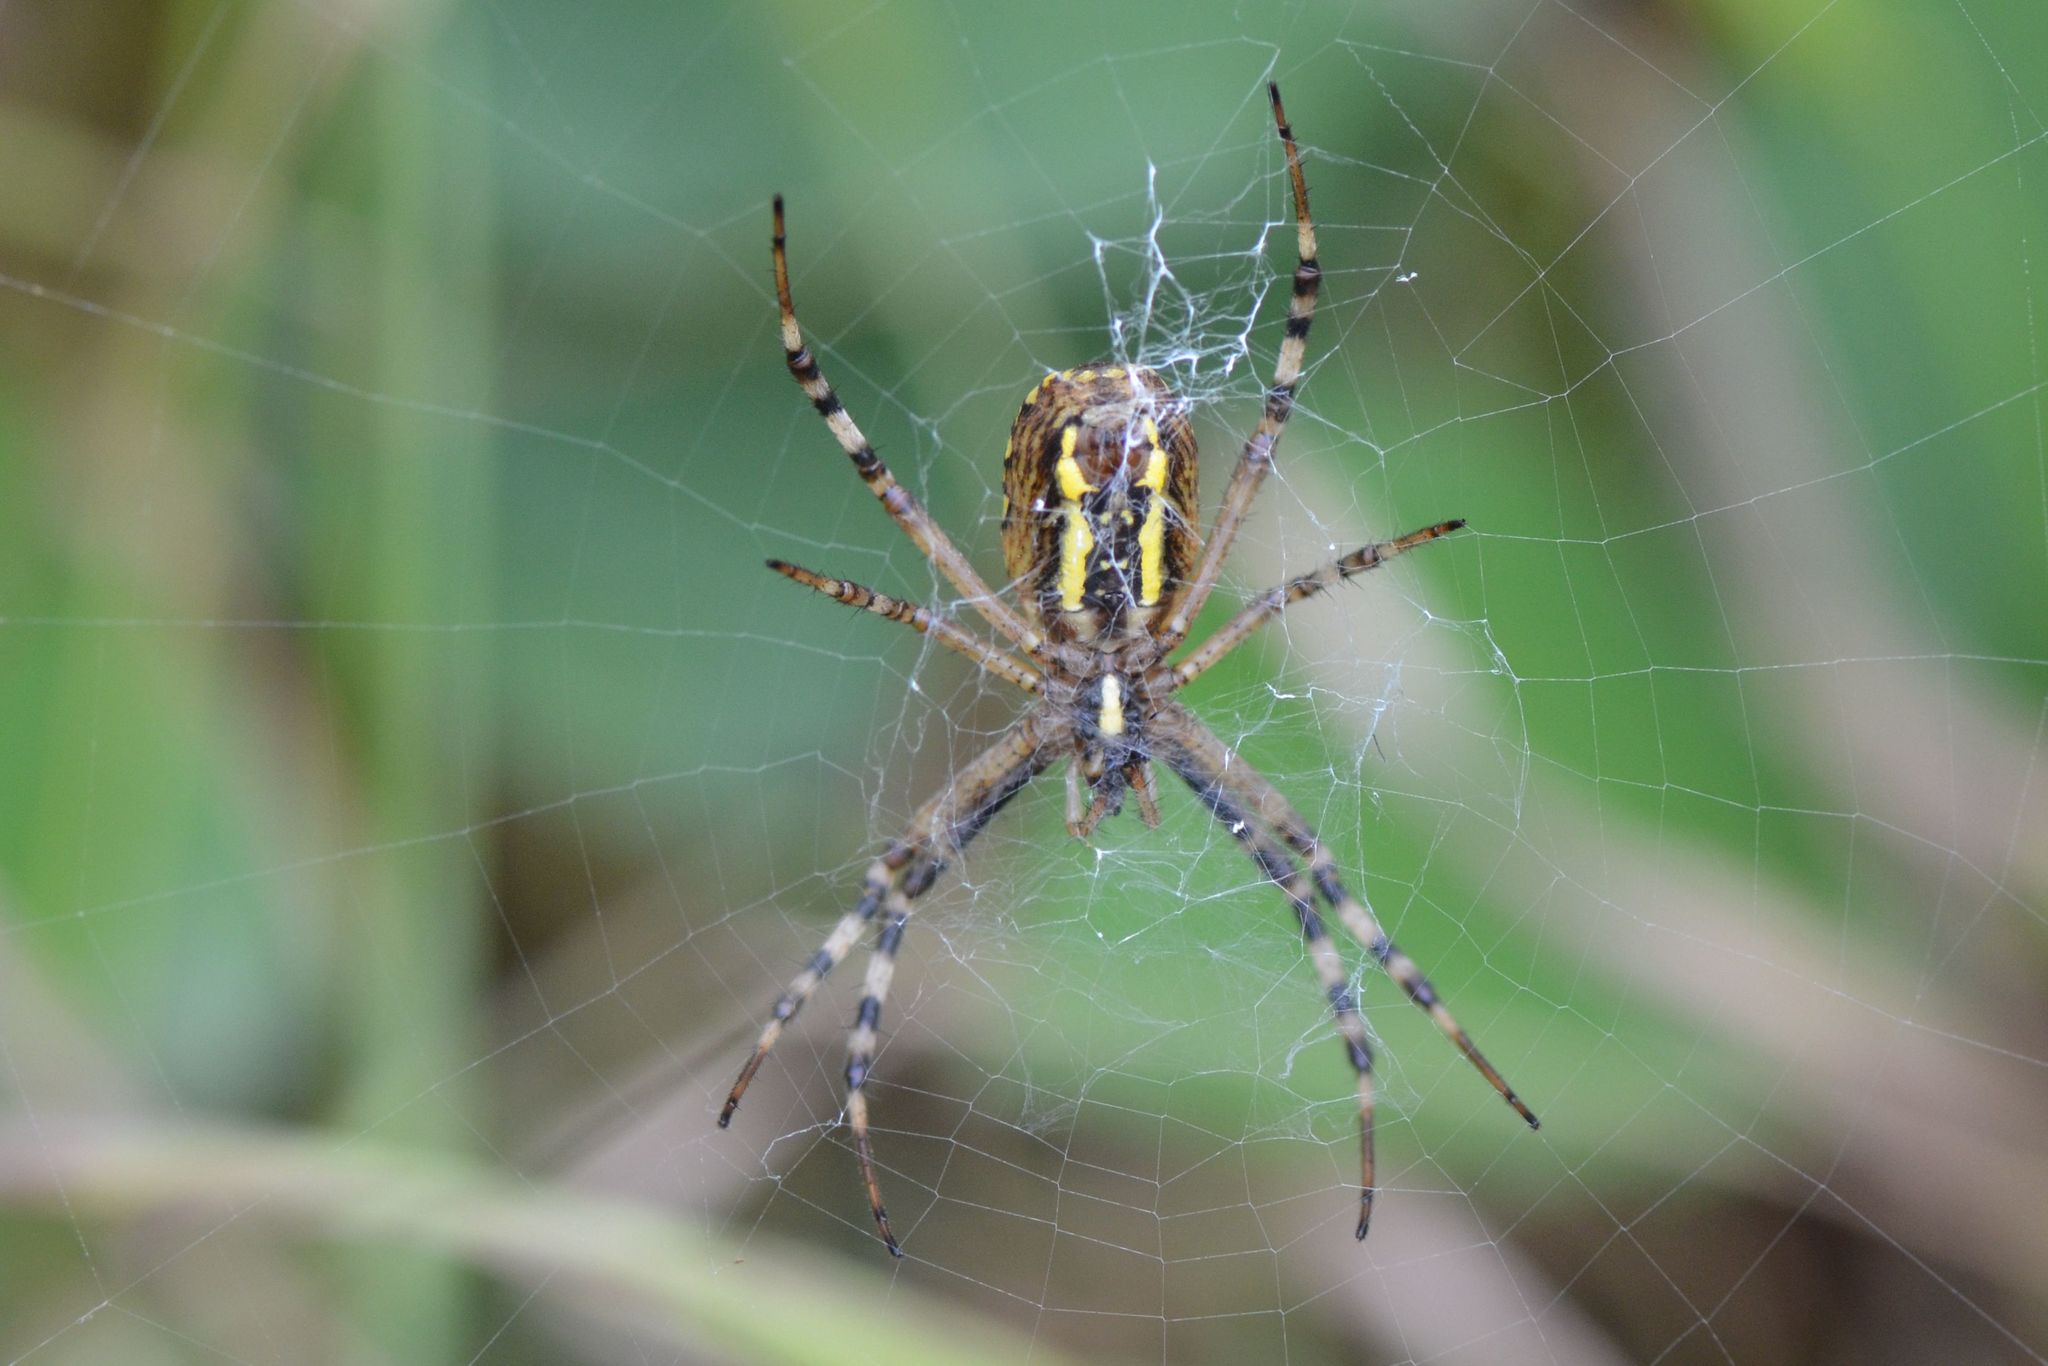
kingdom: Animalia
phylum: Arthropoda
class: Arachnida
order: Araneae
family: Araneidae
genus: Argiope
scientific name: Argiope bruennichi
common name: Wasp spider
